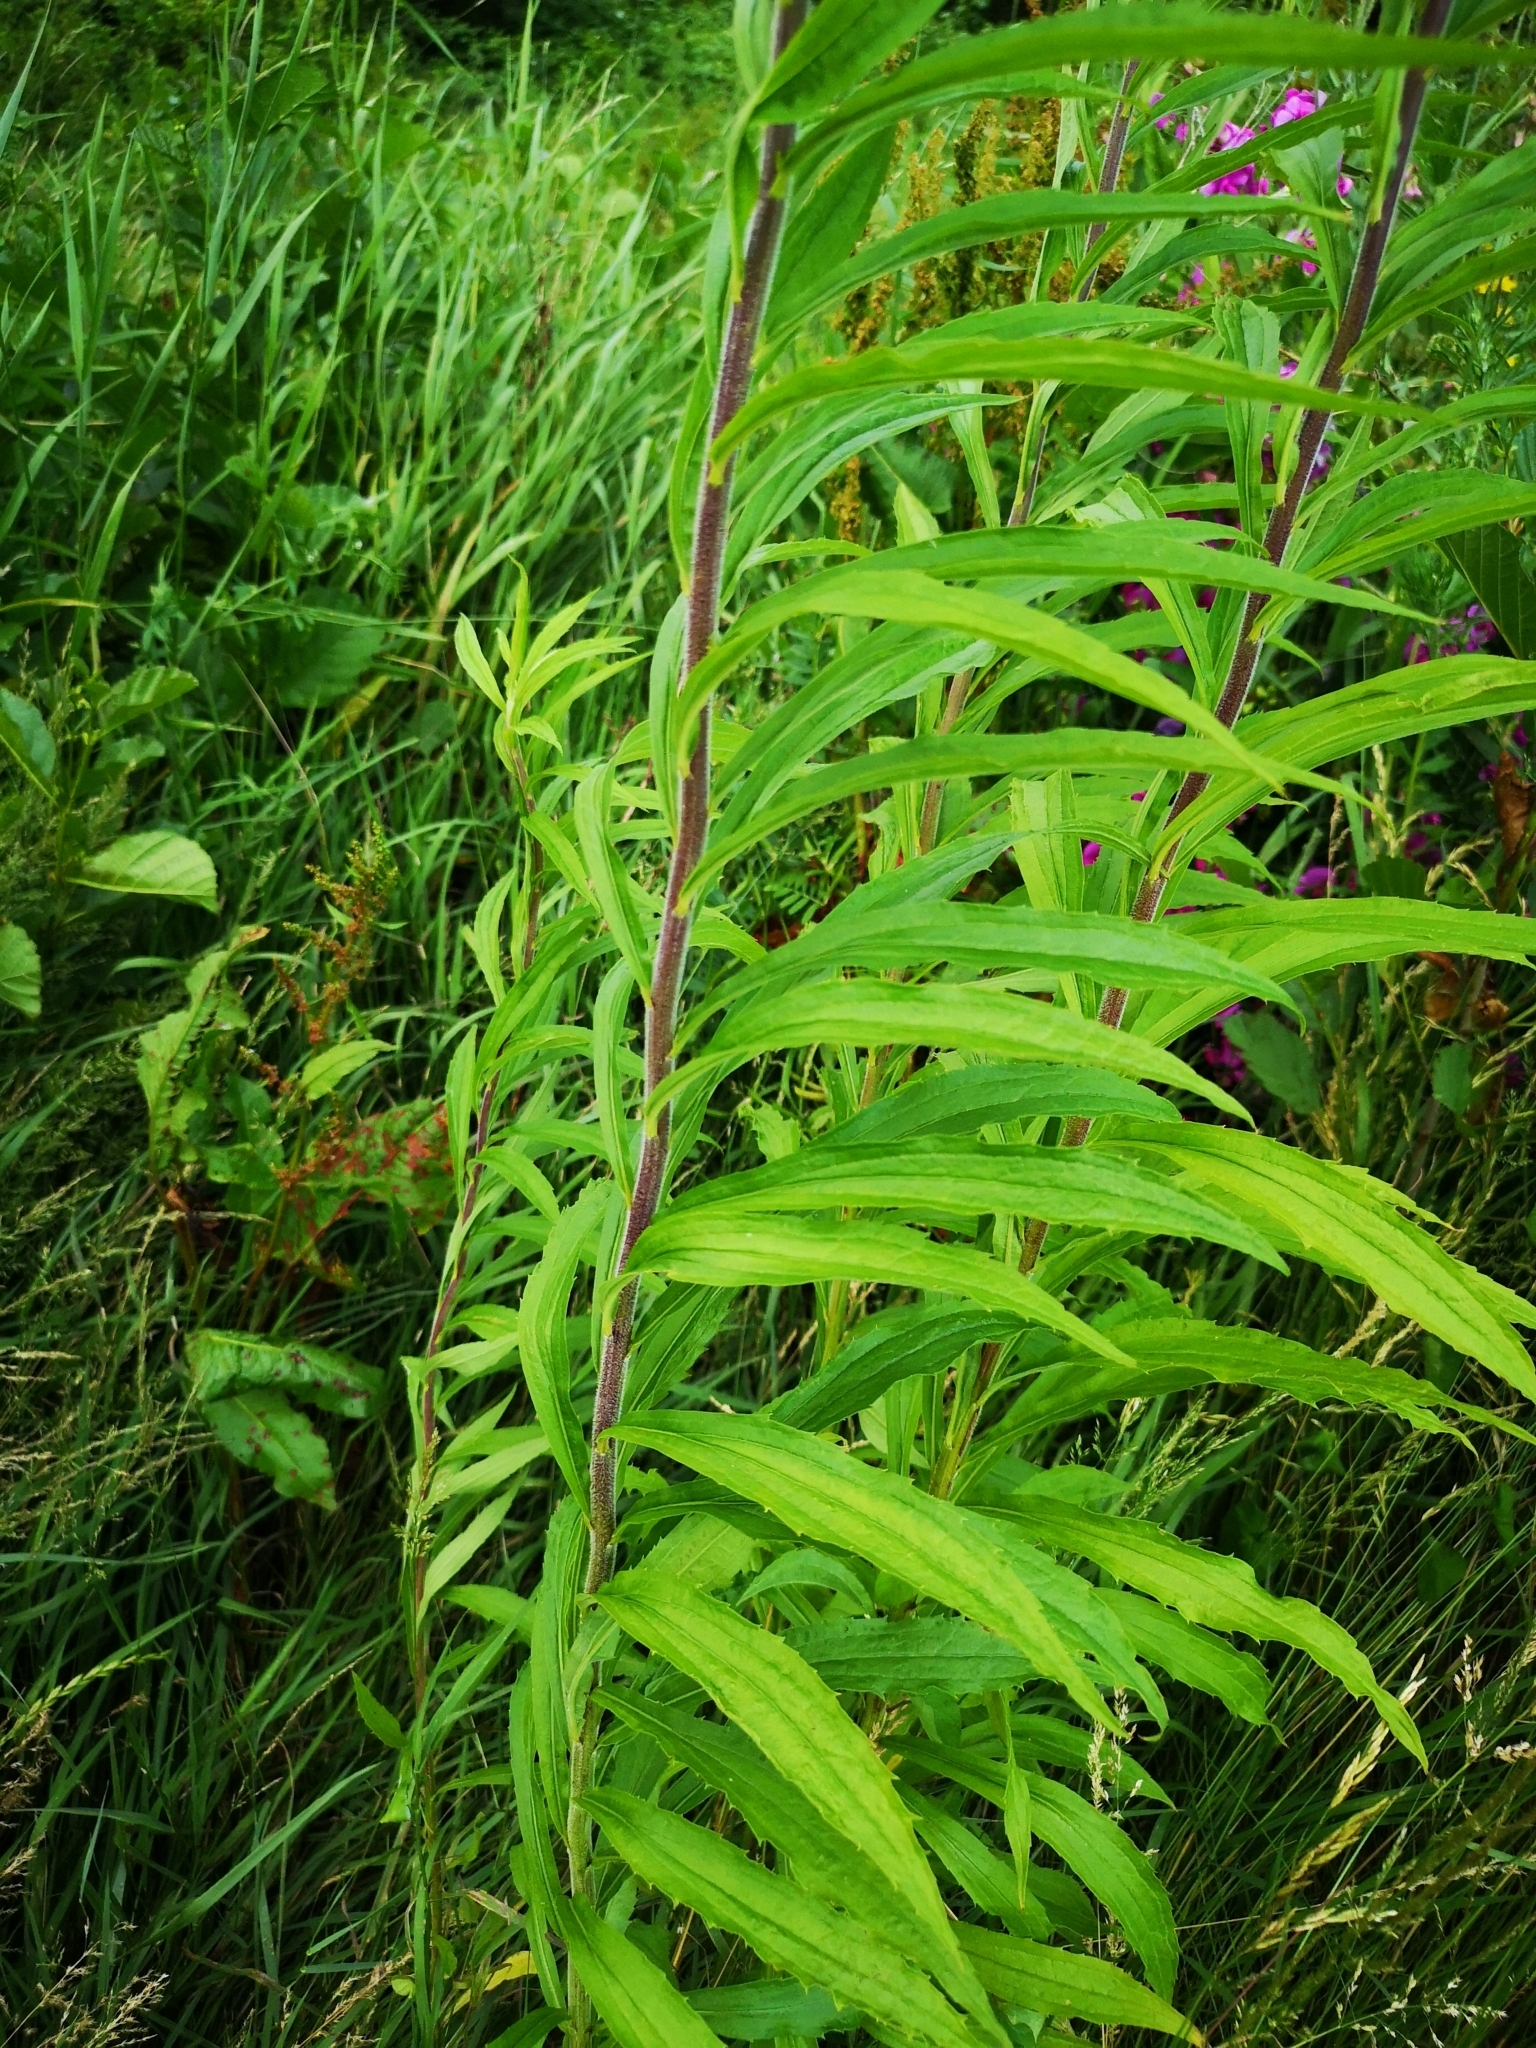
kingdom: Plantae
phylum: Tracheophyta
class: Magnoliopsida
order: Asterales
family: Asteraceae
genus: Solidago
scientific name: Solidago canadensis
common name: Canada goldenrod
